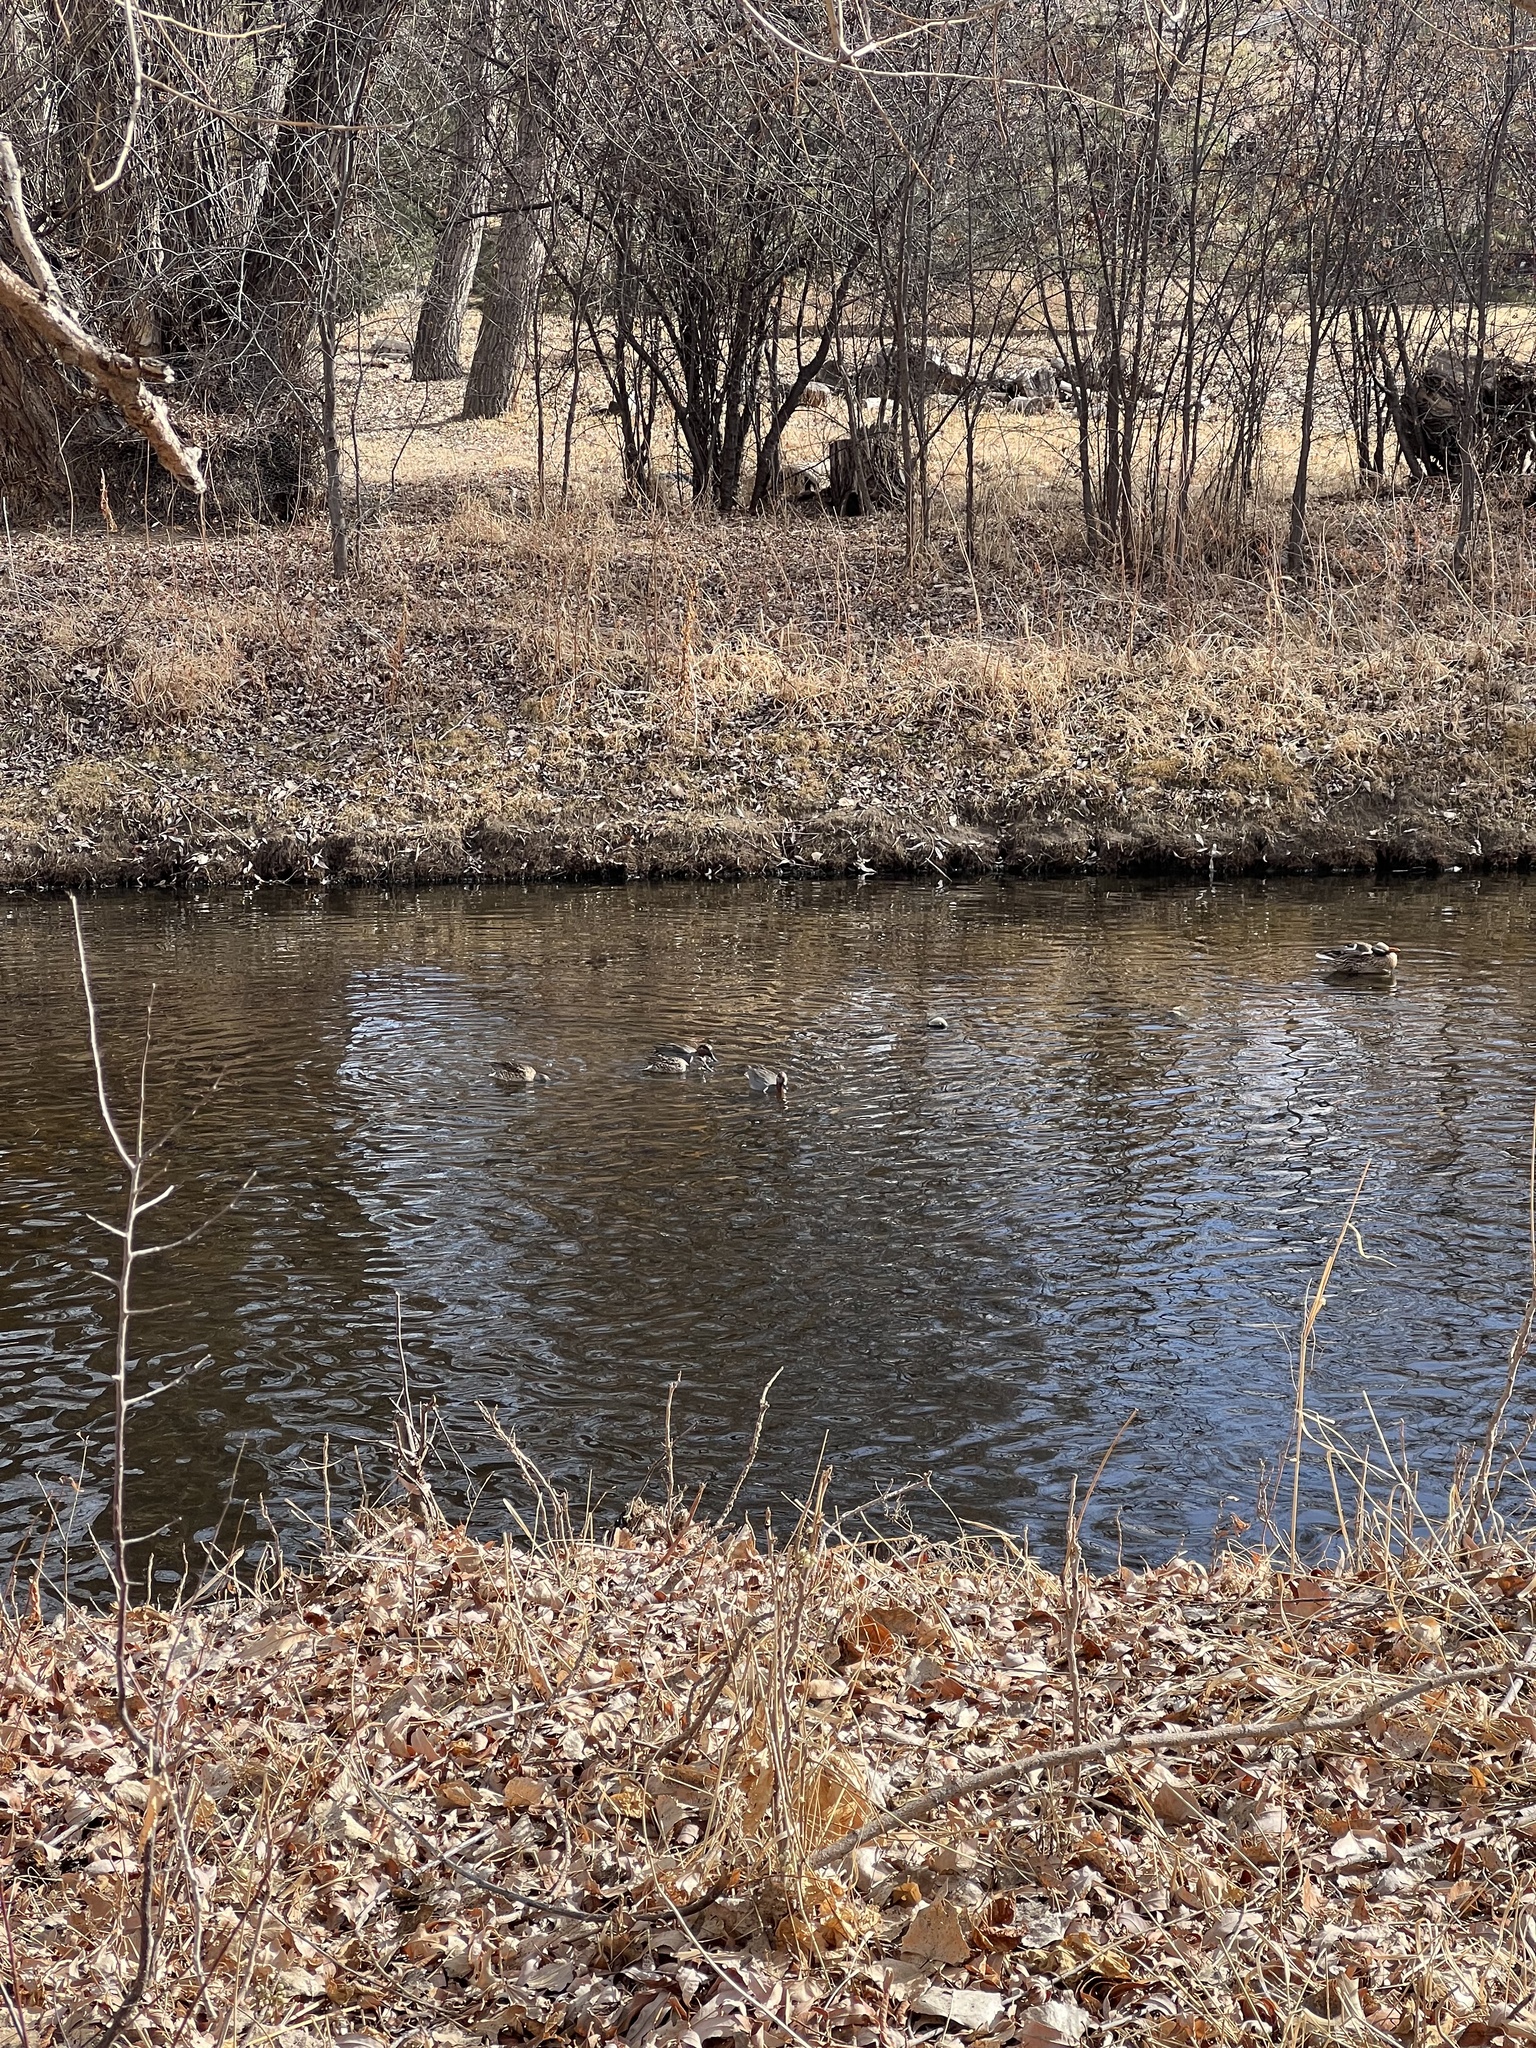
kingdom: Animalia
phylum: Chordata
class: Aves
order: Anseriformes
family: Anatidae
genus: Anas
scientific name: Anas crecca
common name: Eurasian teal
